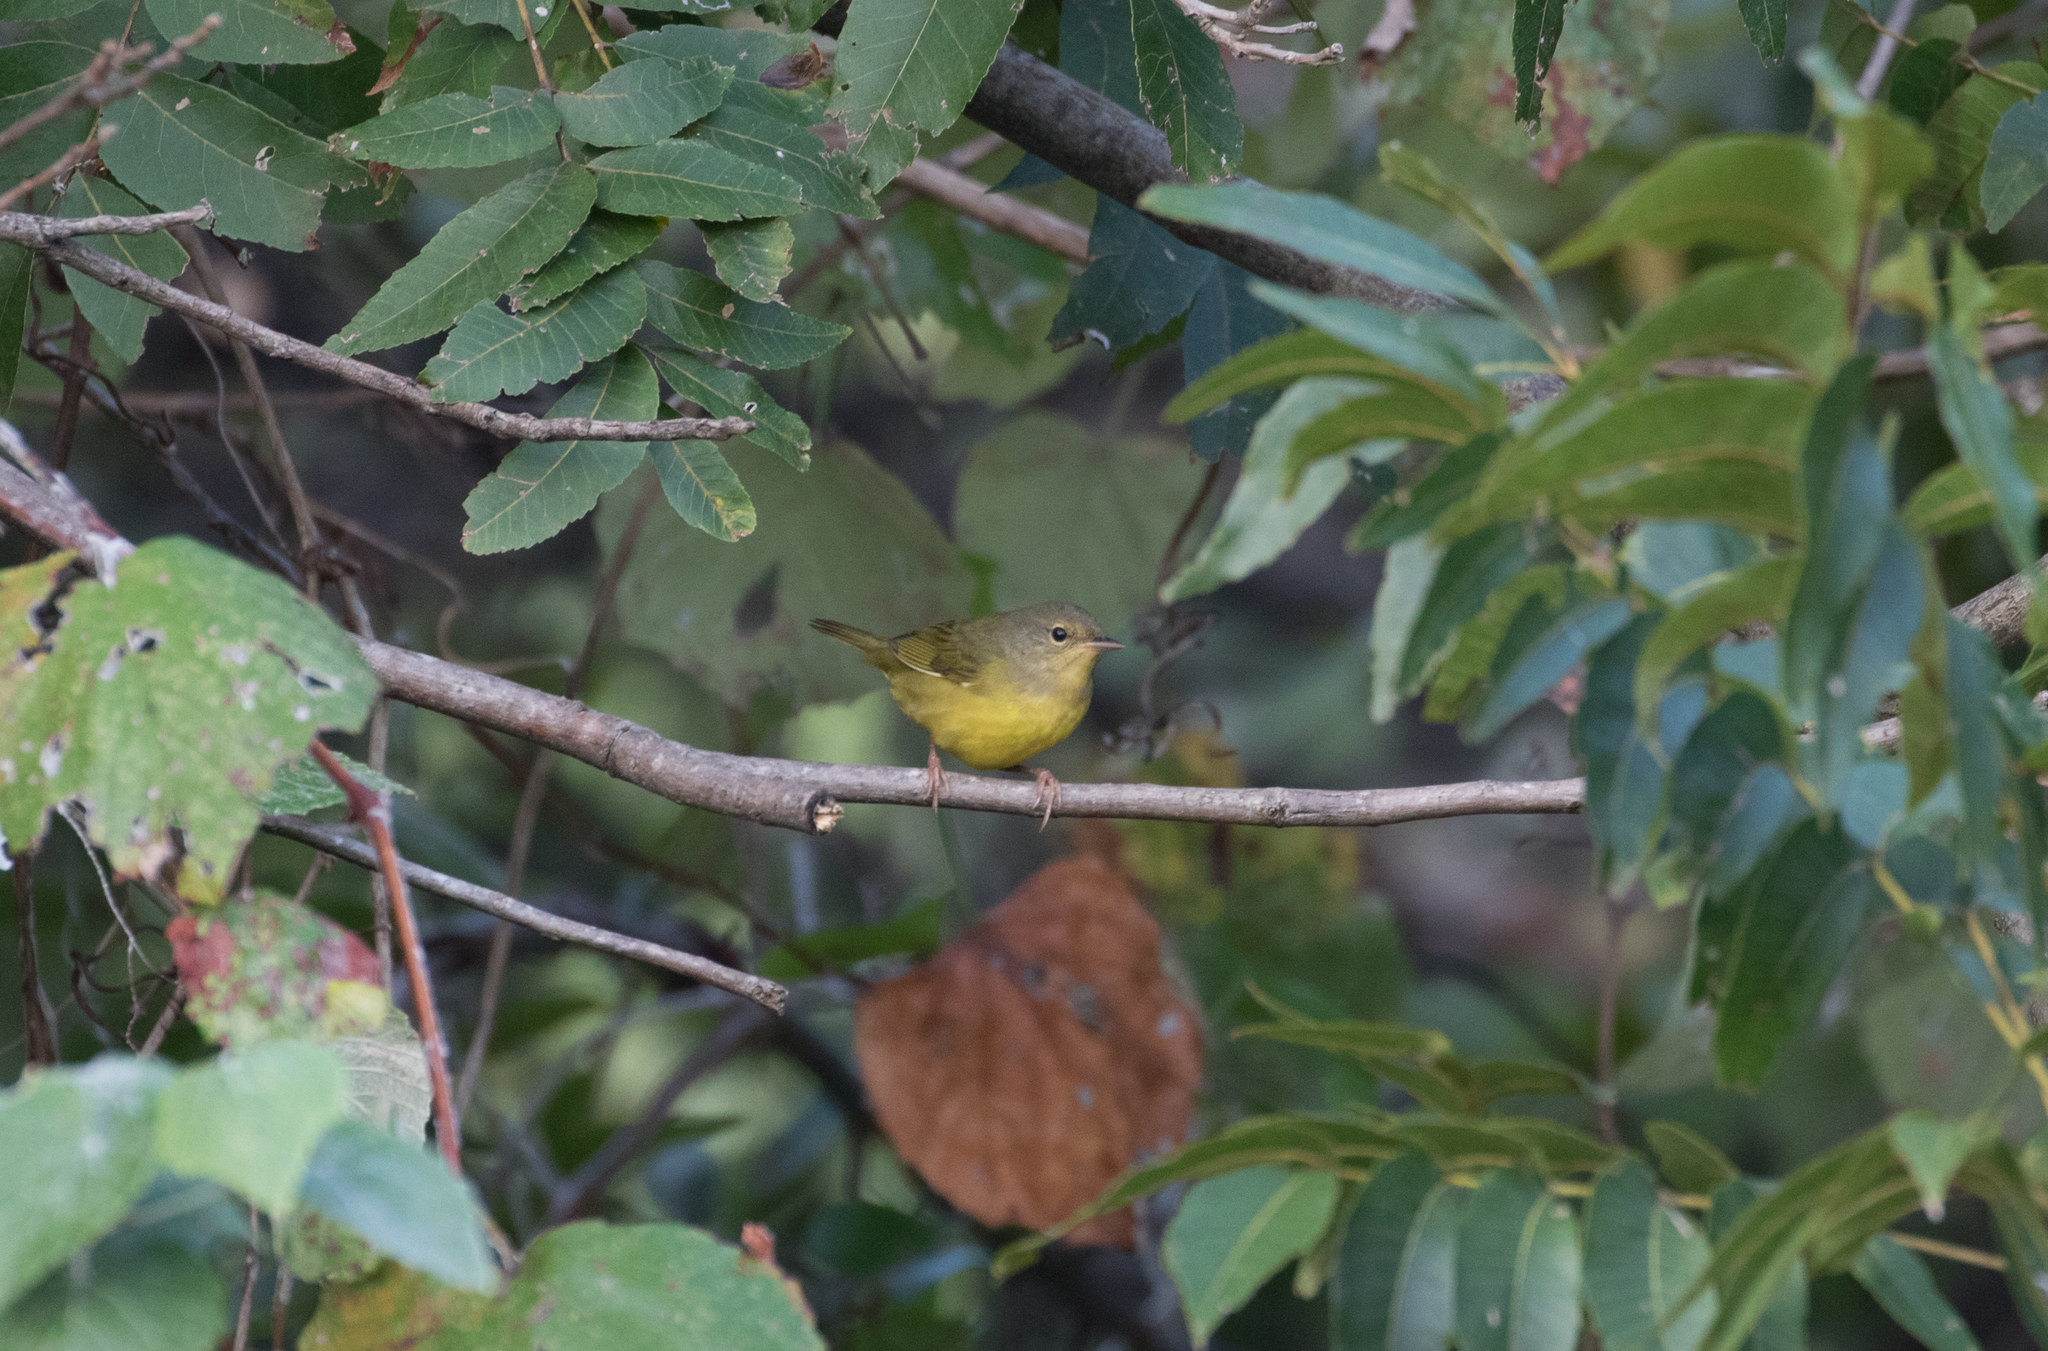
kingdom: Animalia
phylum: Chordata
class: Aves
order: Passeriformes
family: Parulidae
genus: Geothlypis
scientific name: Geothlypis philadelphia
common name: Mourning warbler
